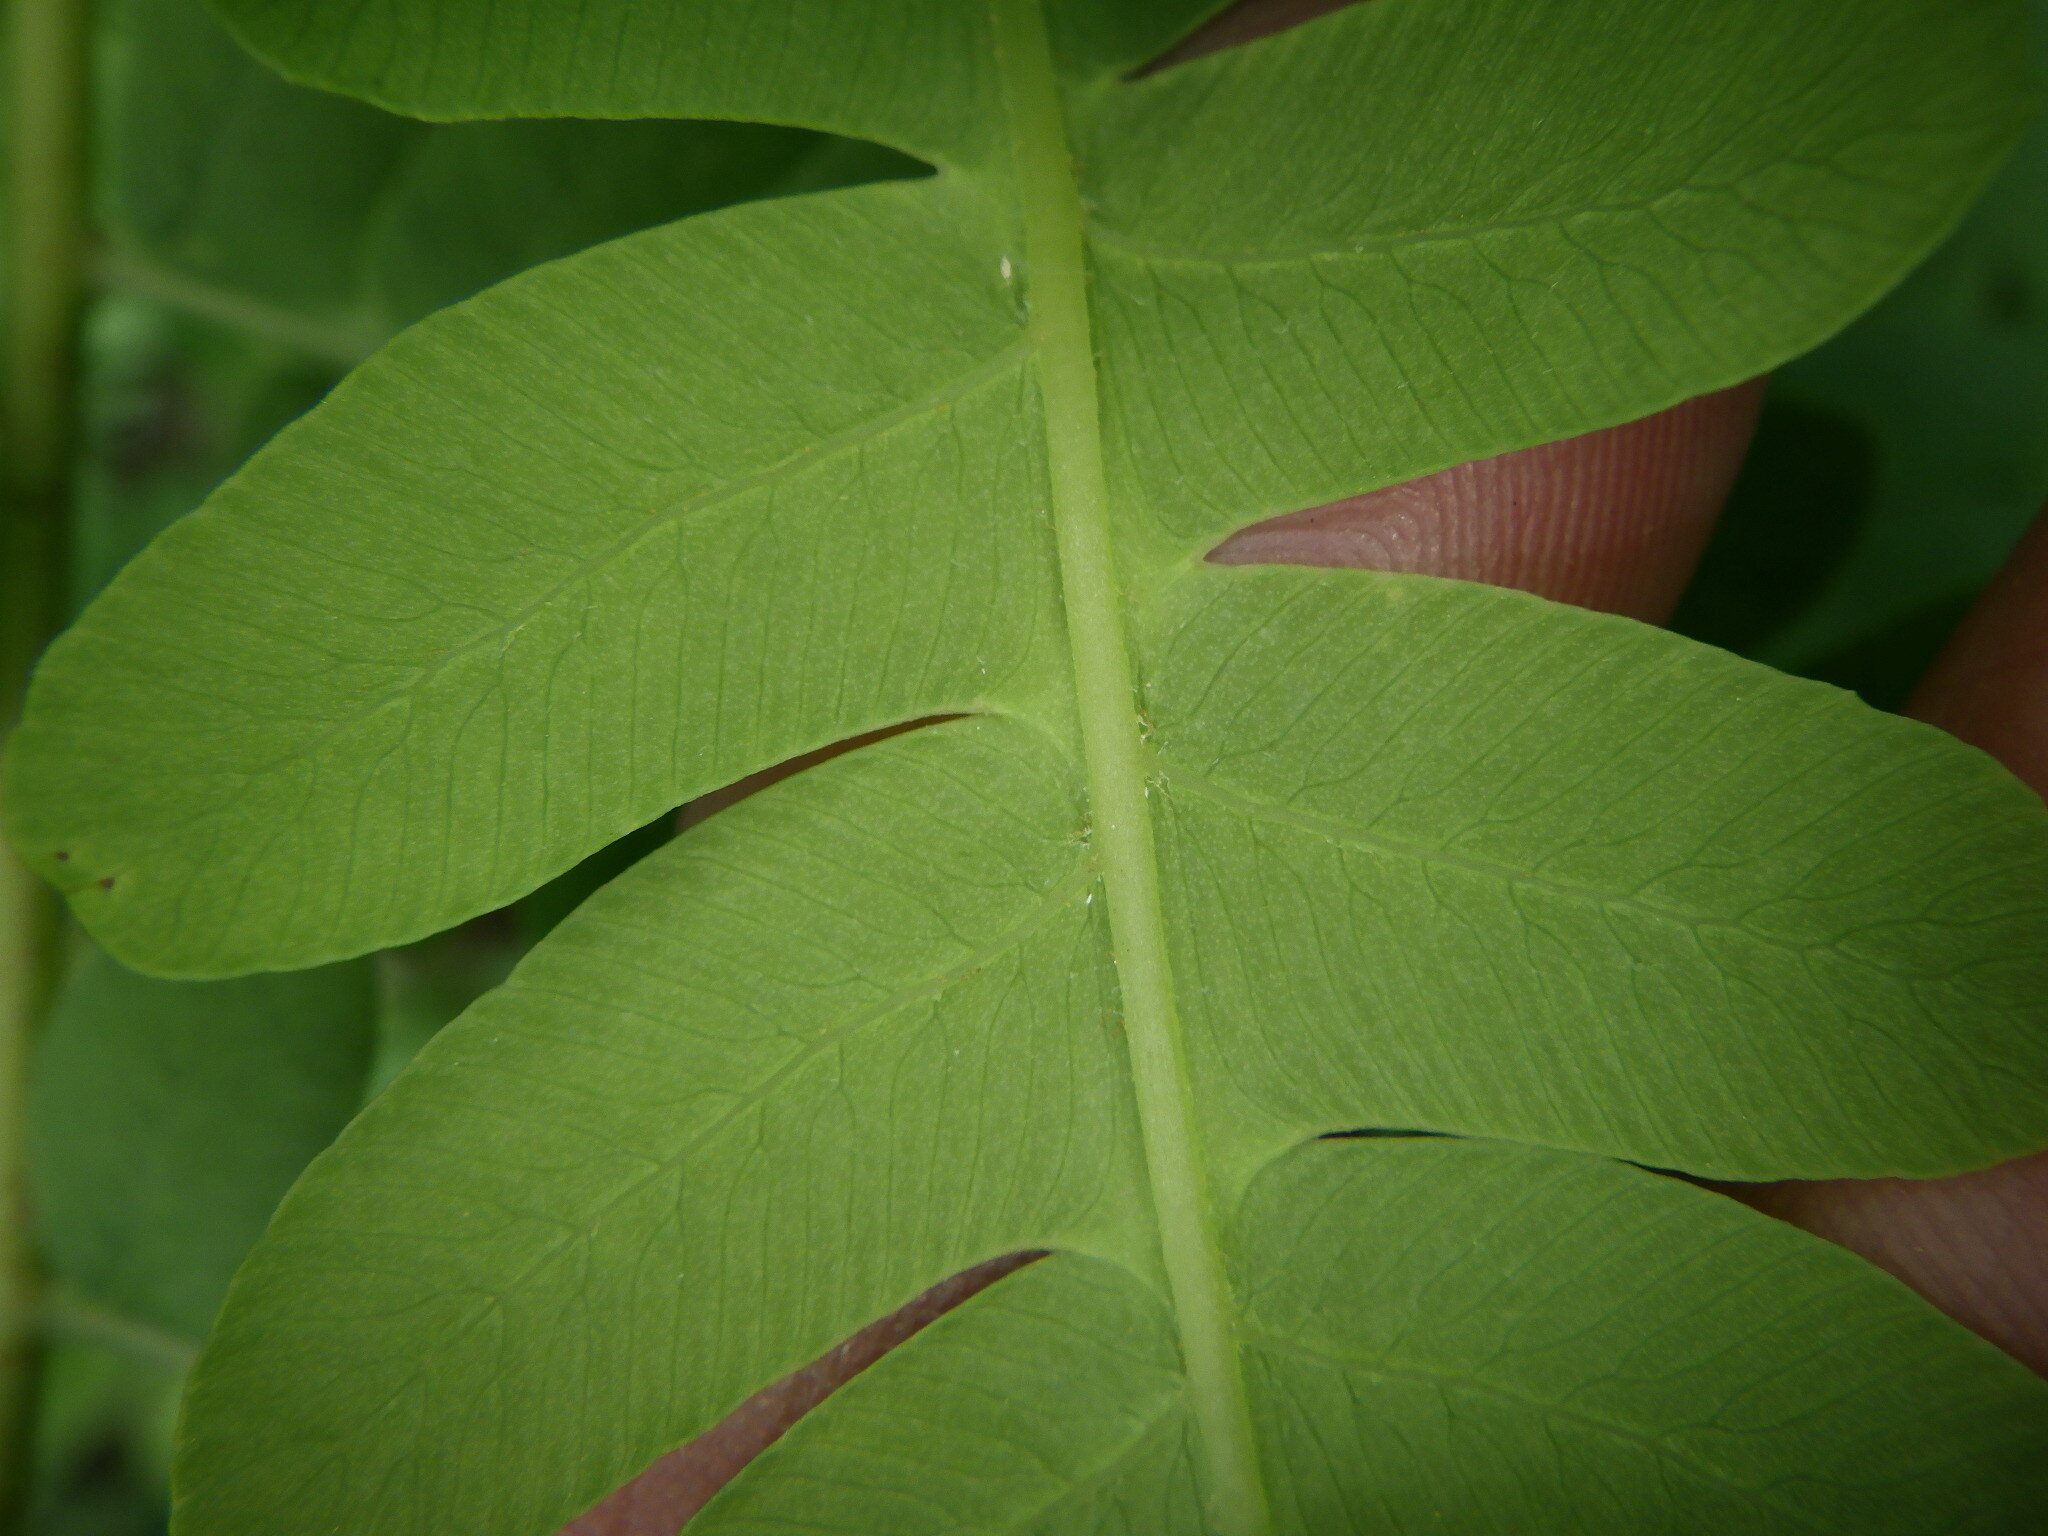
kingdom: Plantae
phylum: Tracheophyta
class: Polypodiopsida
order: Osmundales
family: Osmundaceae
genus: Claytosmunda
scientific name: Claytosmunda claytoniana
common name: Clayton's fern
